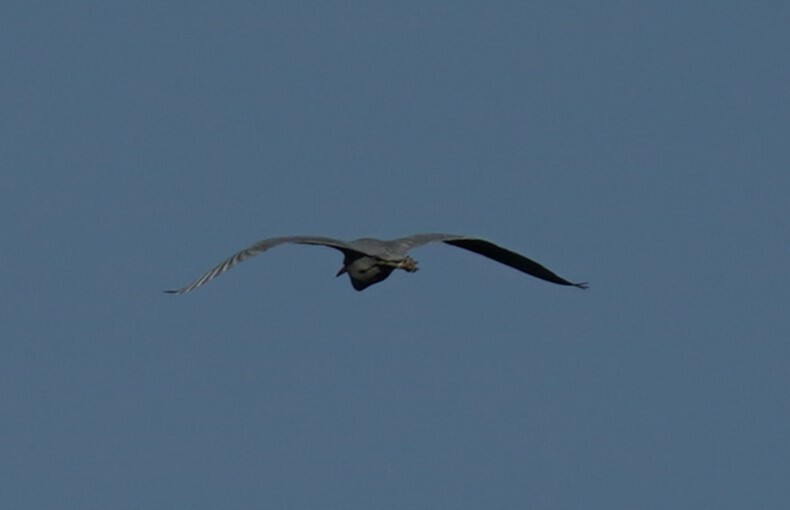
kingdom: Animalia
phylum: Chordata
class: Aves
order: Pelecaniformes
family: Ardeidae
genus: Egretta
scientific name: Egretta caerulea
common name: Little blue heron
